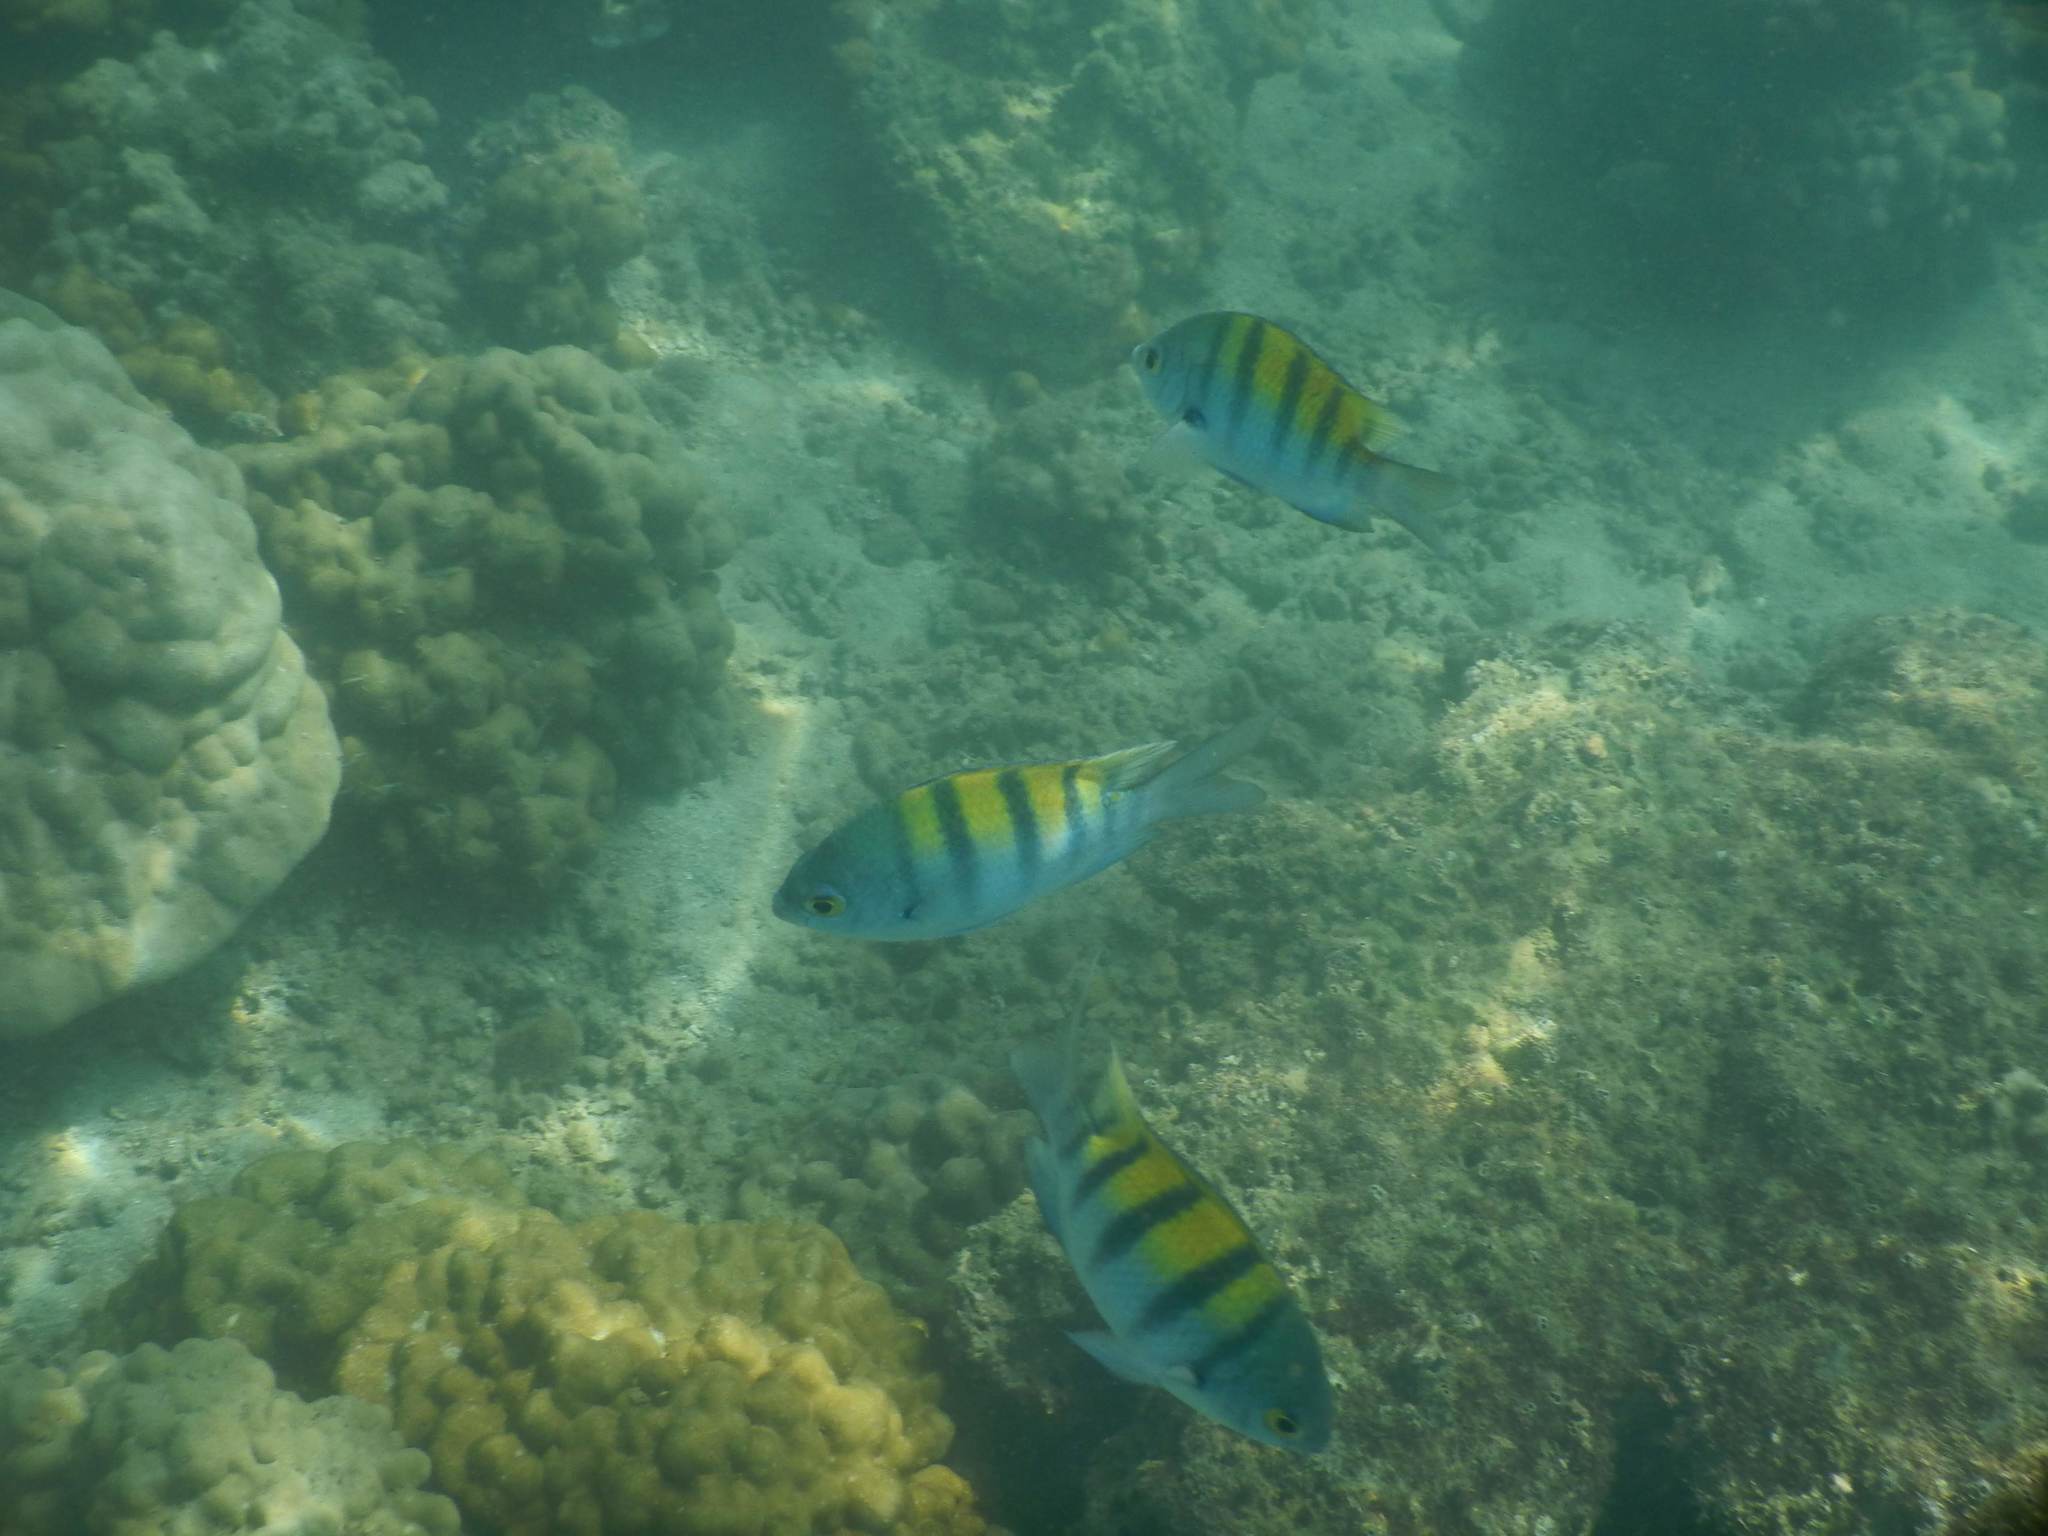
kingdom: Animalia
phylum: Chordata
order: Perciformes
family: Pomacentridae
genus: Abudefduf
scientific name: Abudefduf troschelii
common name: Panamic sergeant major
